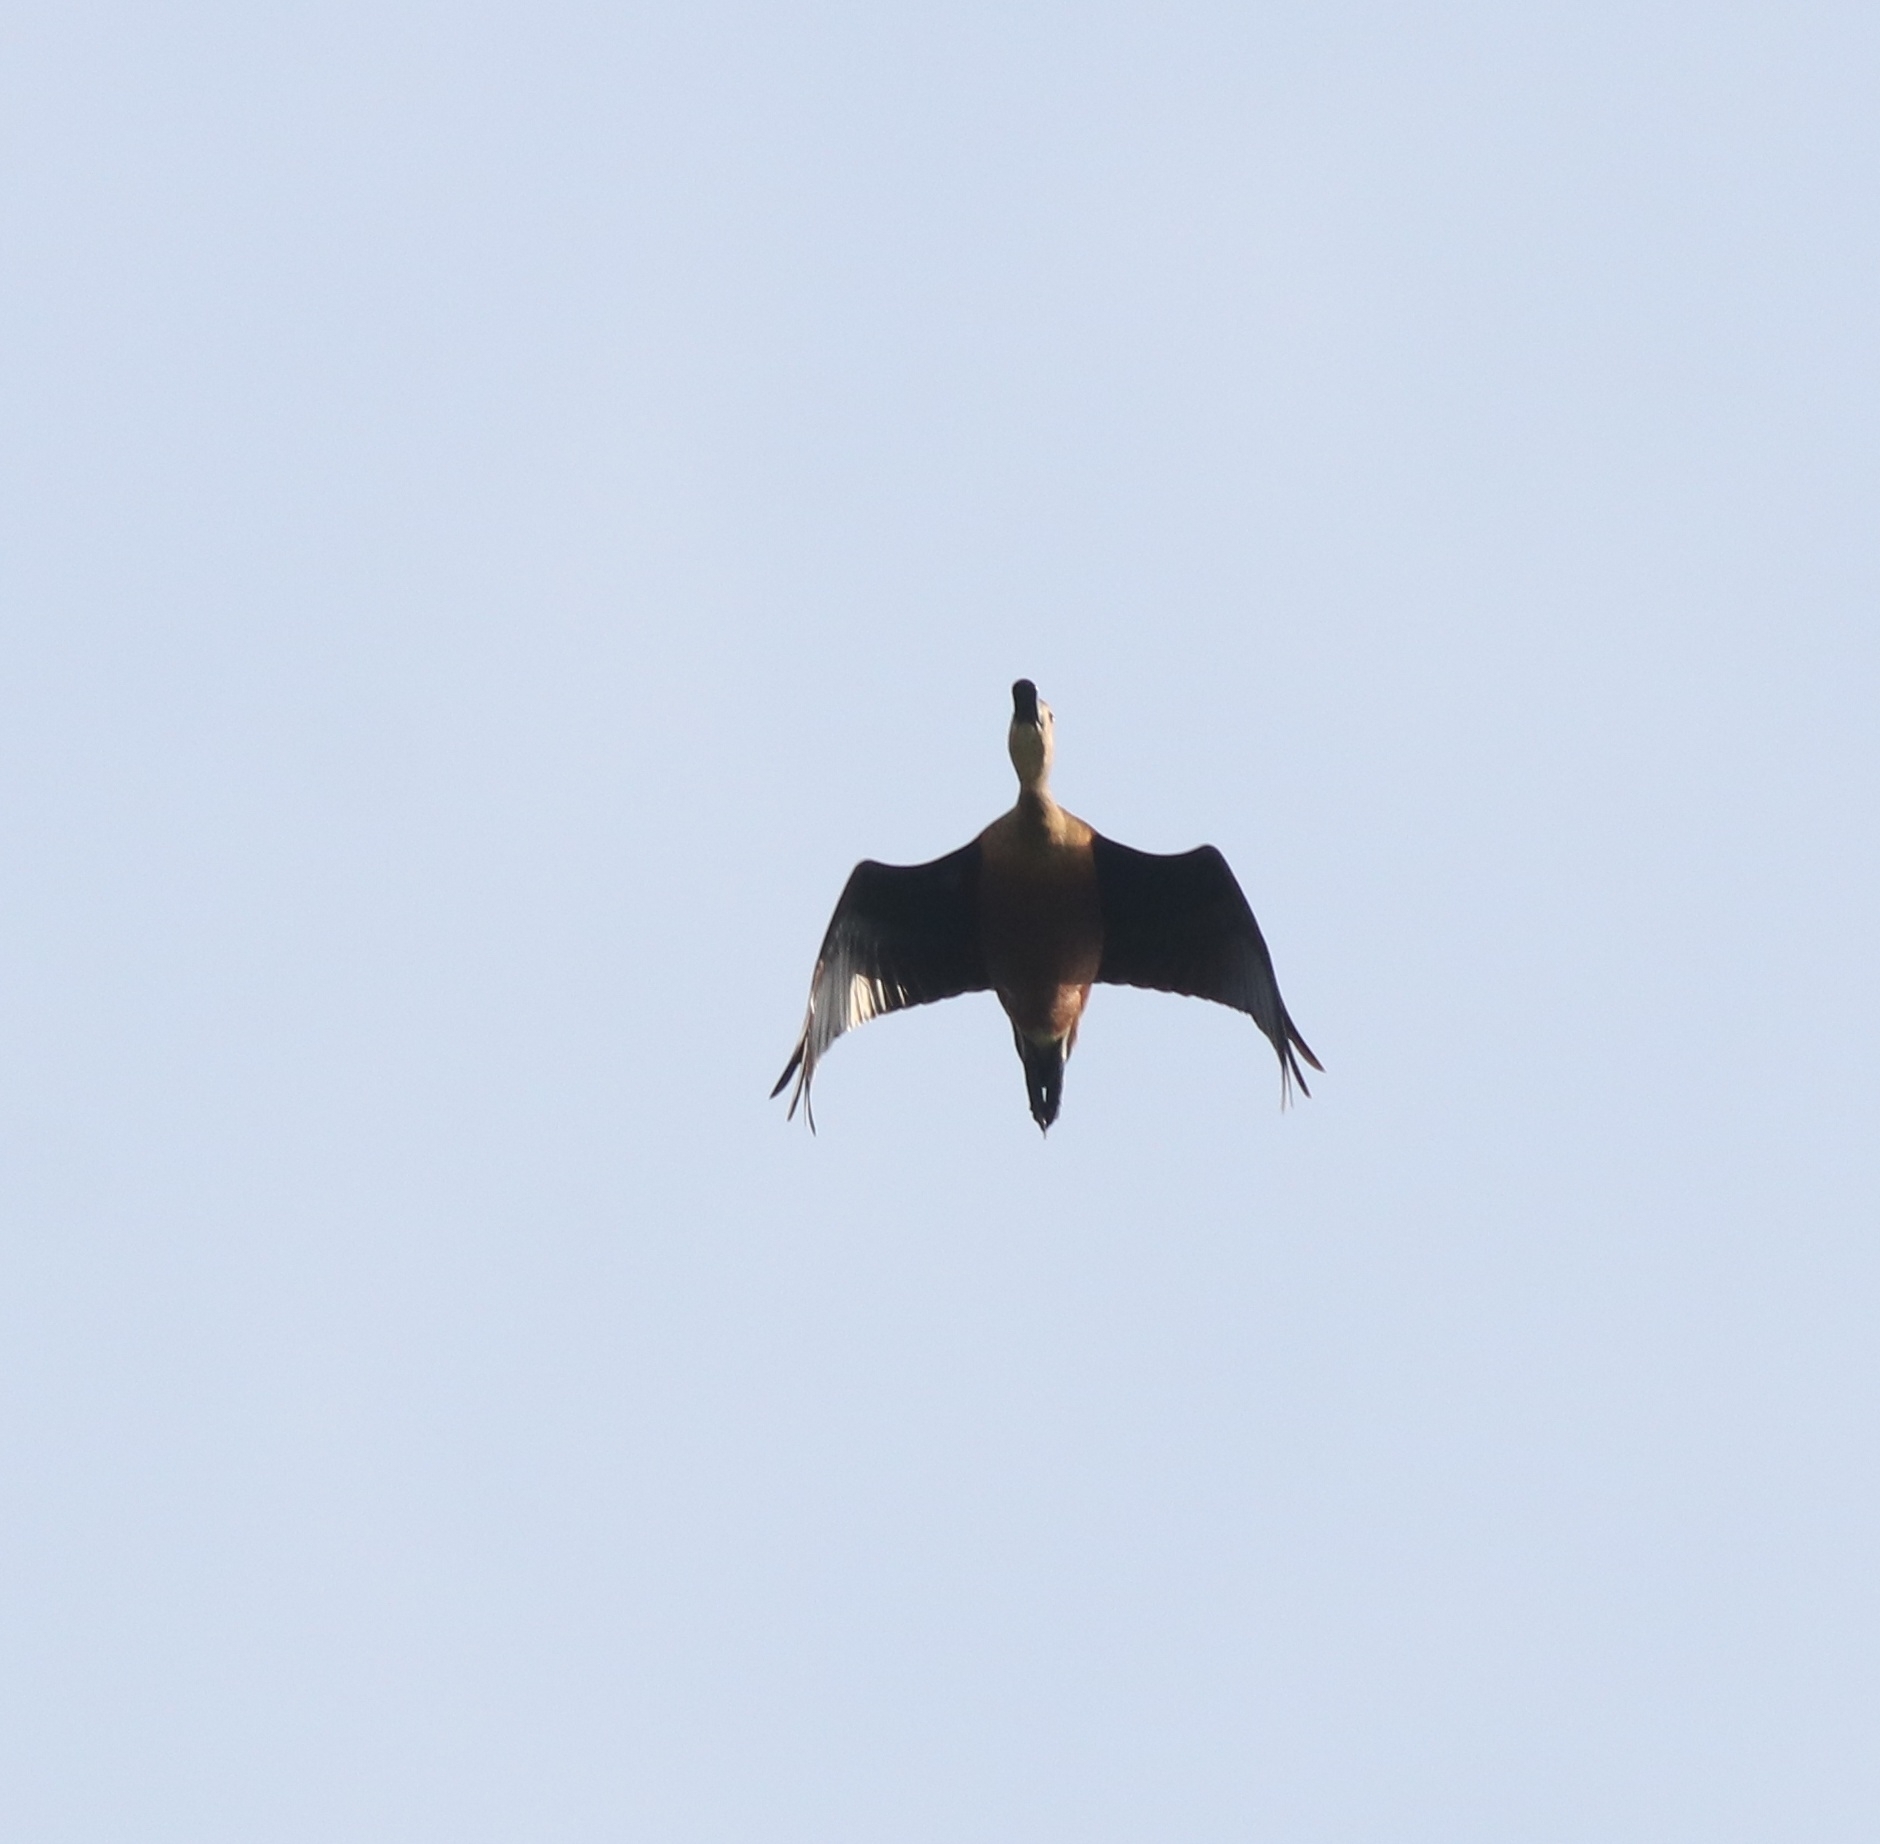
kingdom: Animalia
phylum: Chordata
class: Aves
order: Anseriformes
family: Anatidae
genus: Dendrocygna
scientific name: Dendrocygna javanica
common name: Lesser whistling-duck
